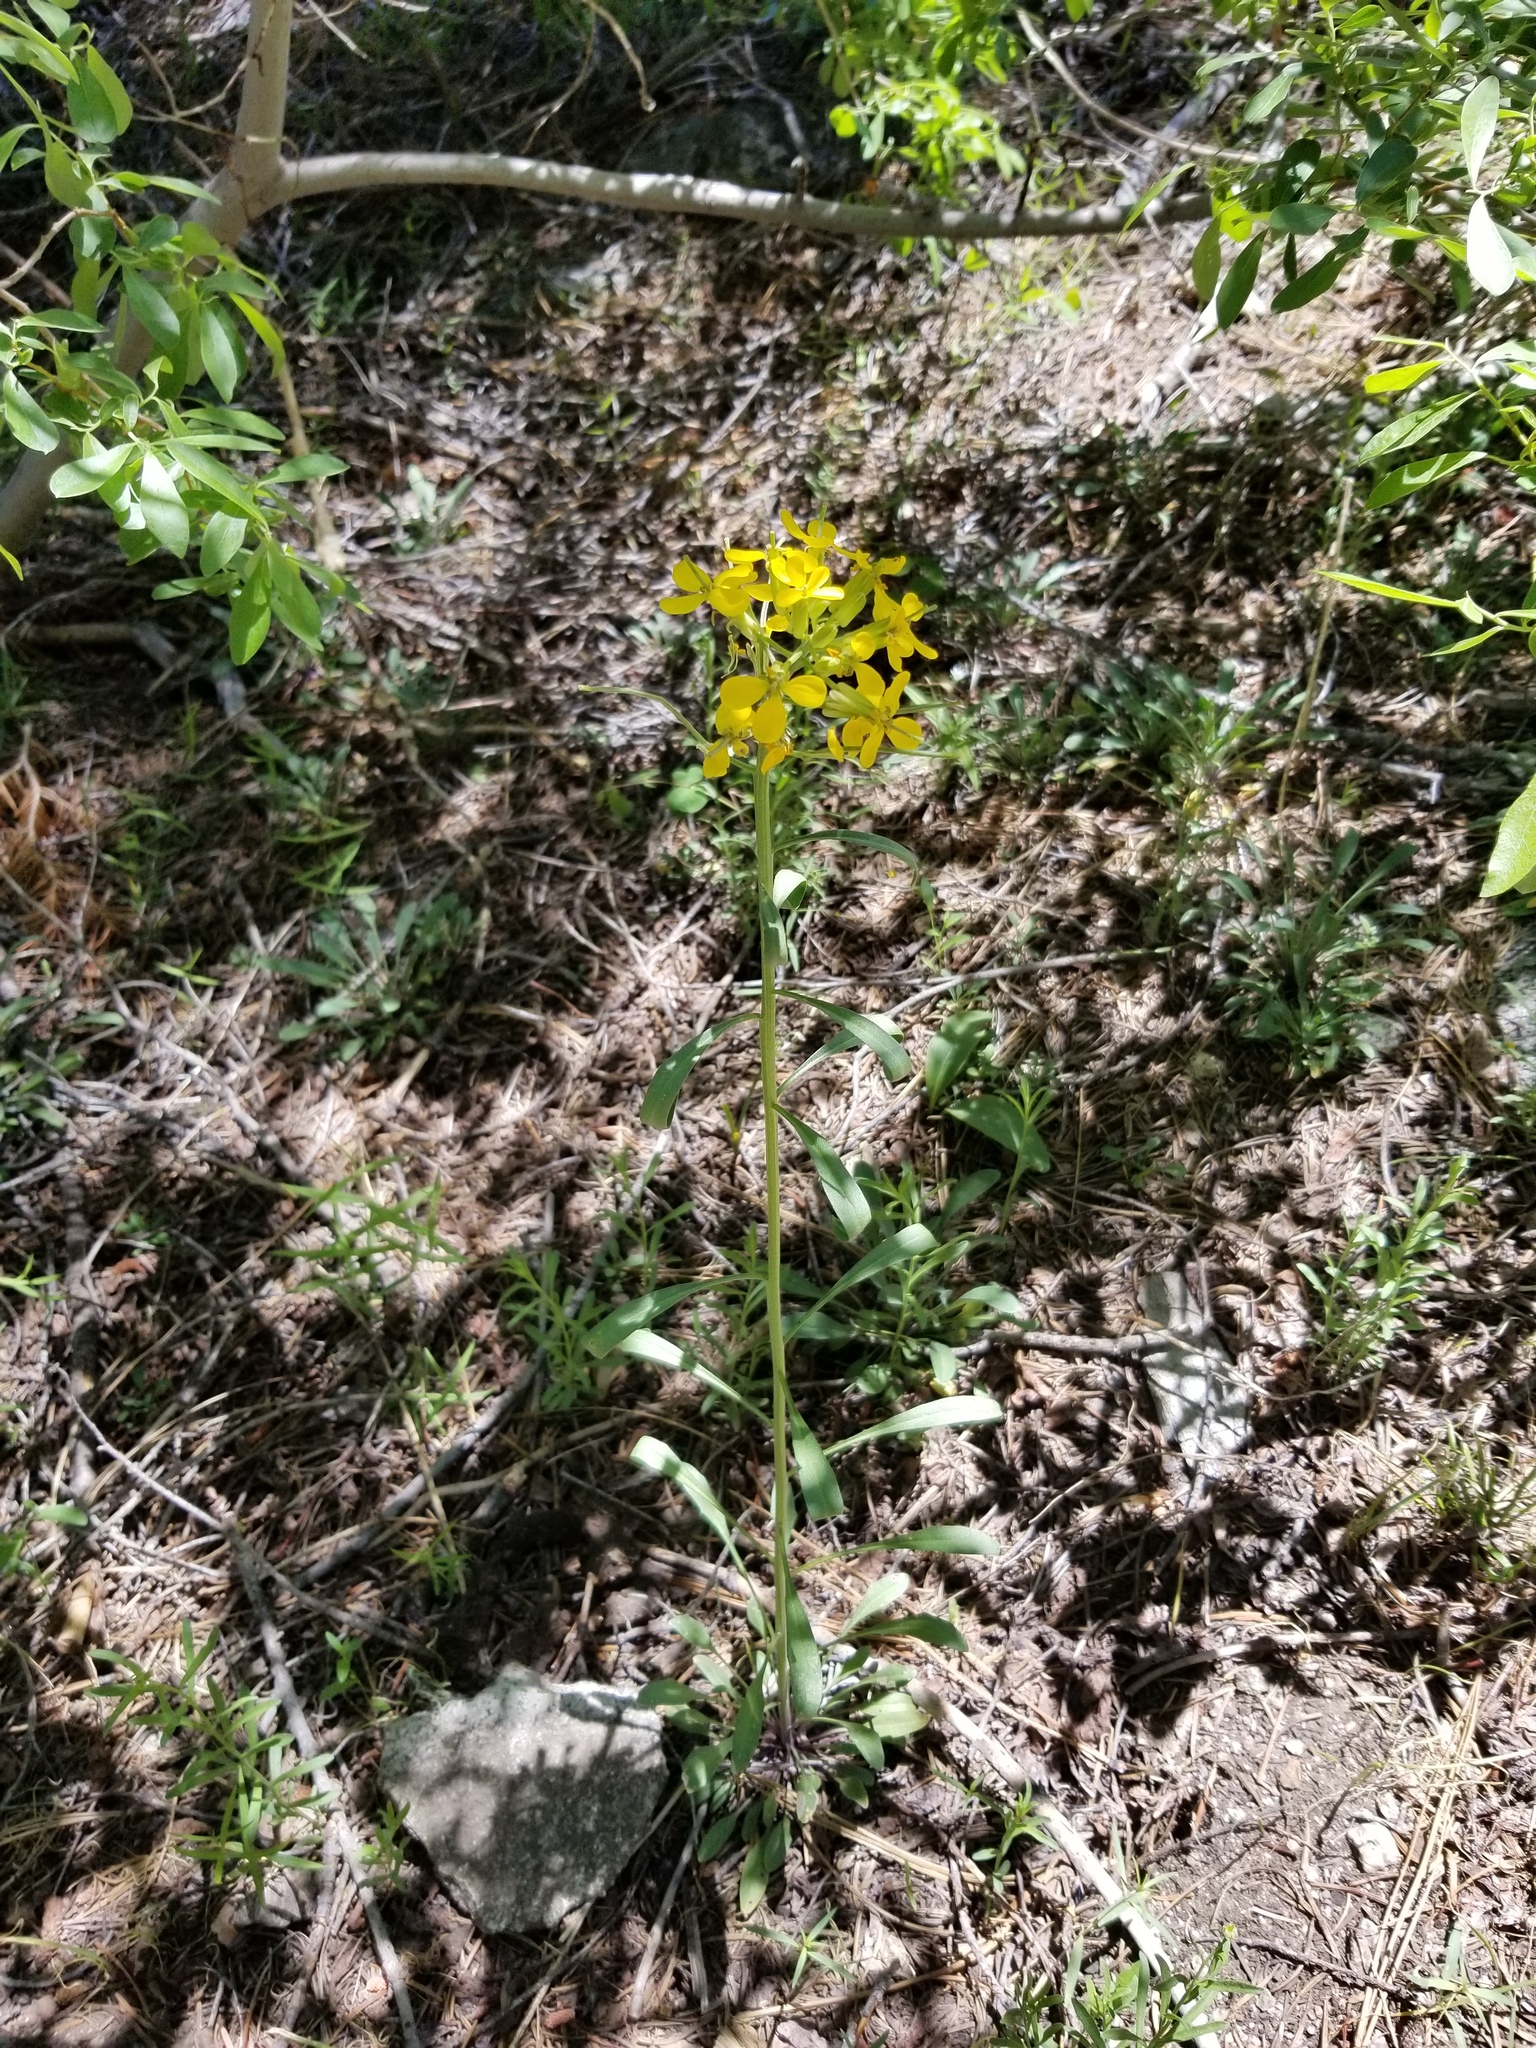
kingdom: Plantae
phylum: Tracheophyta
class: Magnoliopsida
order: Brassicales
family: Brassicaceae
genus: Erysimum
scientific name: Erysimum capitatum
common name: Western wallflower
